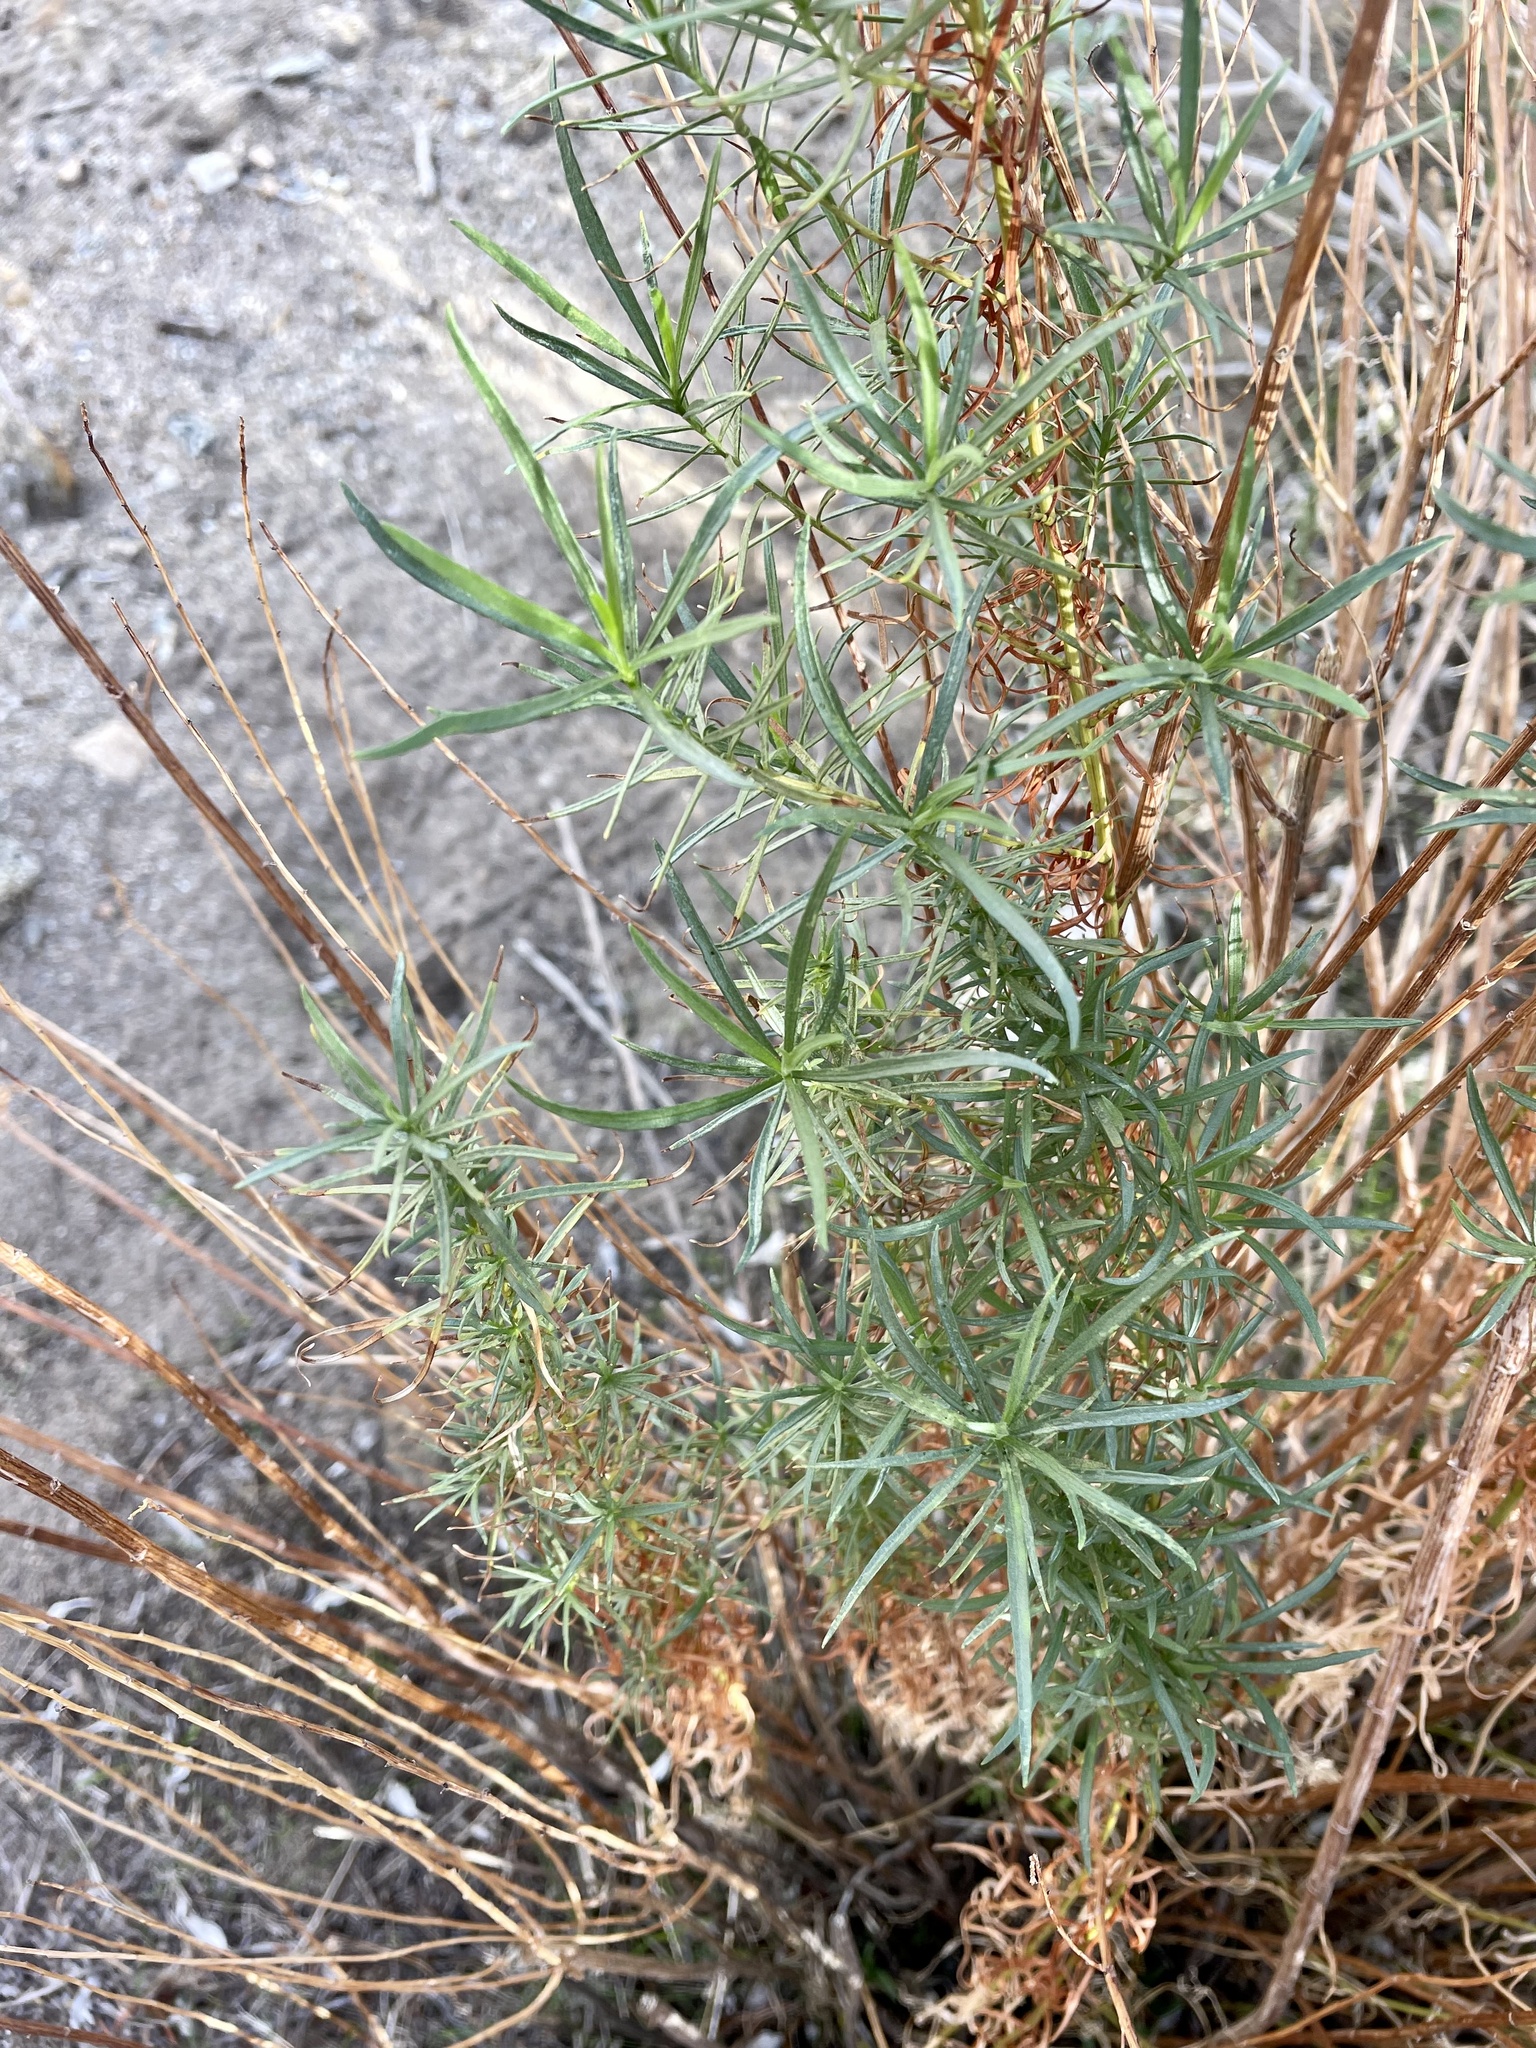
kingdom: Plantae
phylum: Tracheophyta
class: Magnoliopsida
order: Asterales
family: Asteraceae
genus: Artemisia
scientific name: Artemisia dracunculus
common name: Tarragon
